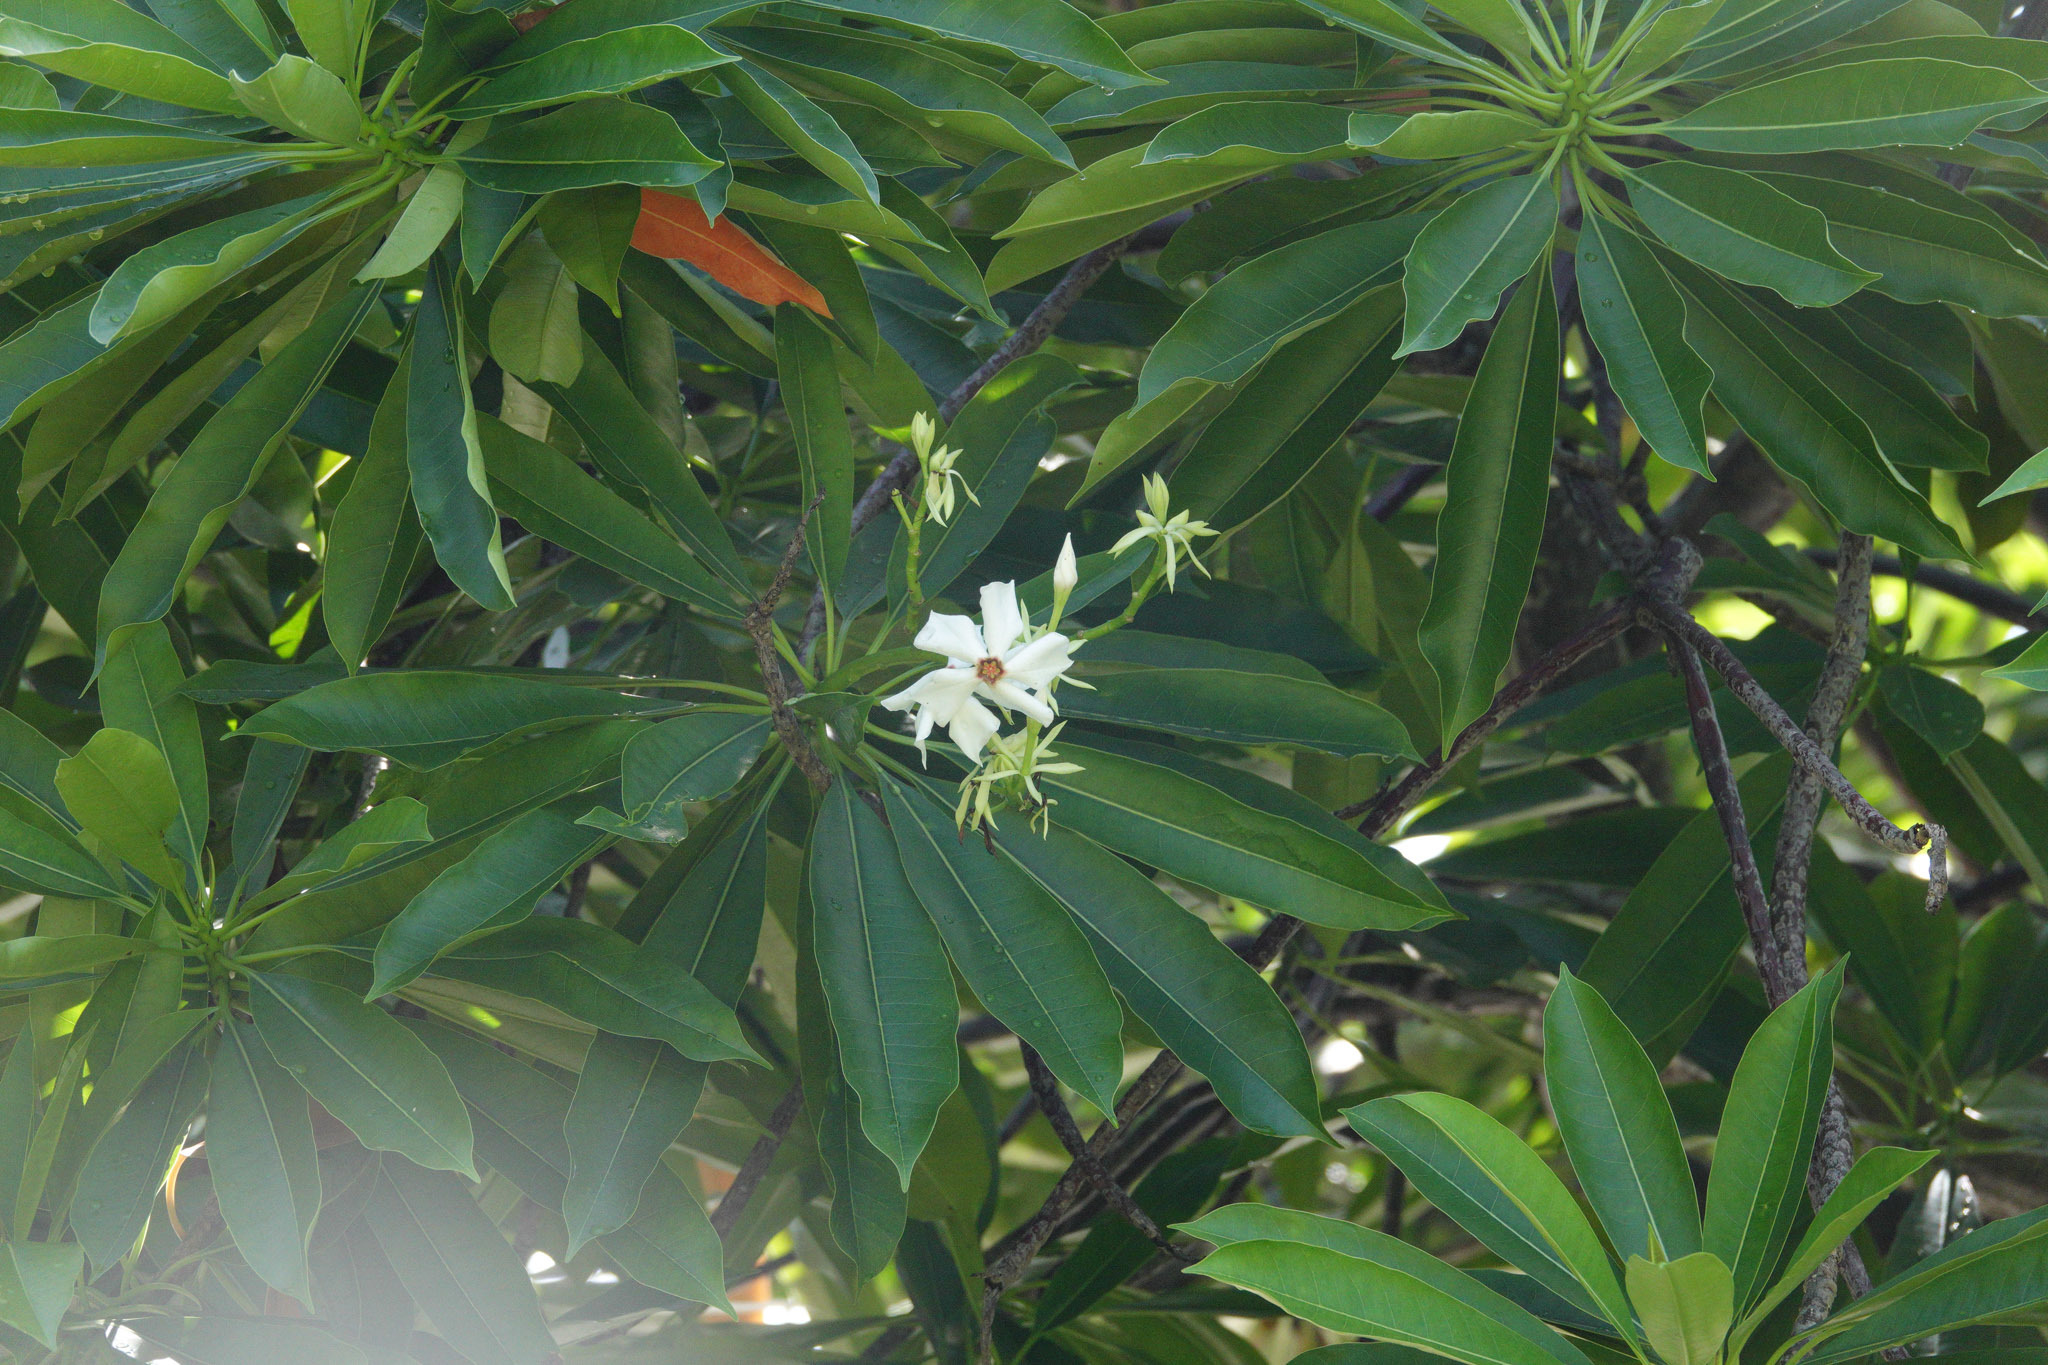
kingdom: Plantae
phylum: Tracheophyta
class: Magnoliopsida
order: Gentianales
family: Apocynaceae
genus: Cerbera
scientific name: Cerbera manghas
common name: Reva
